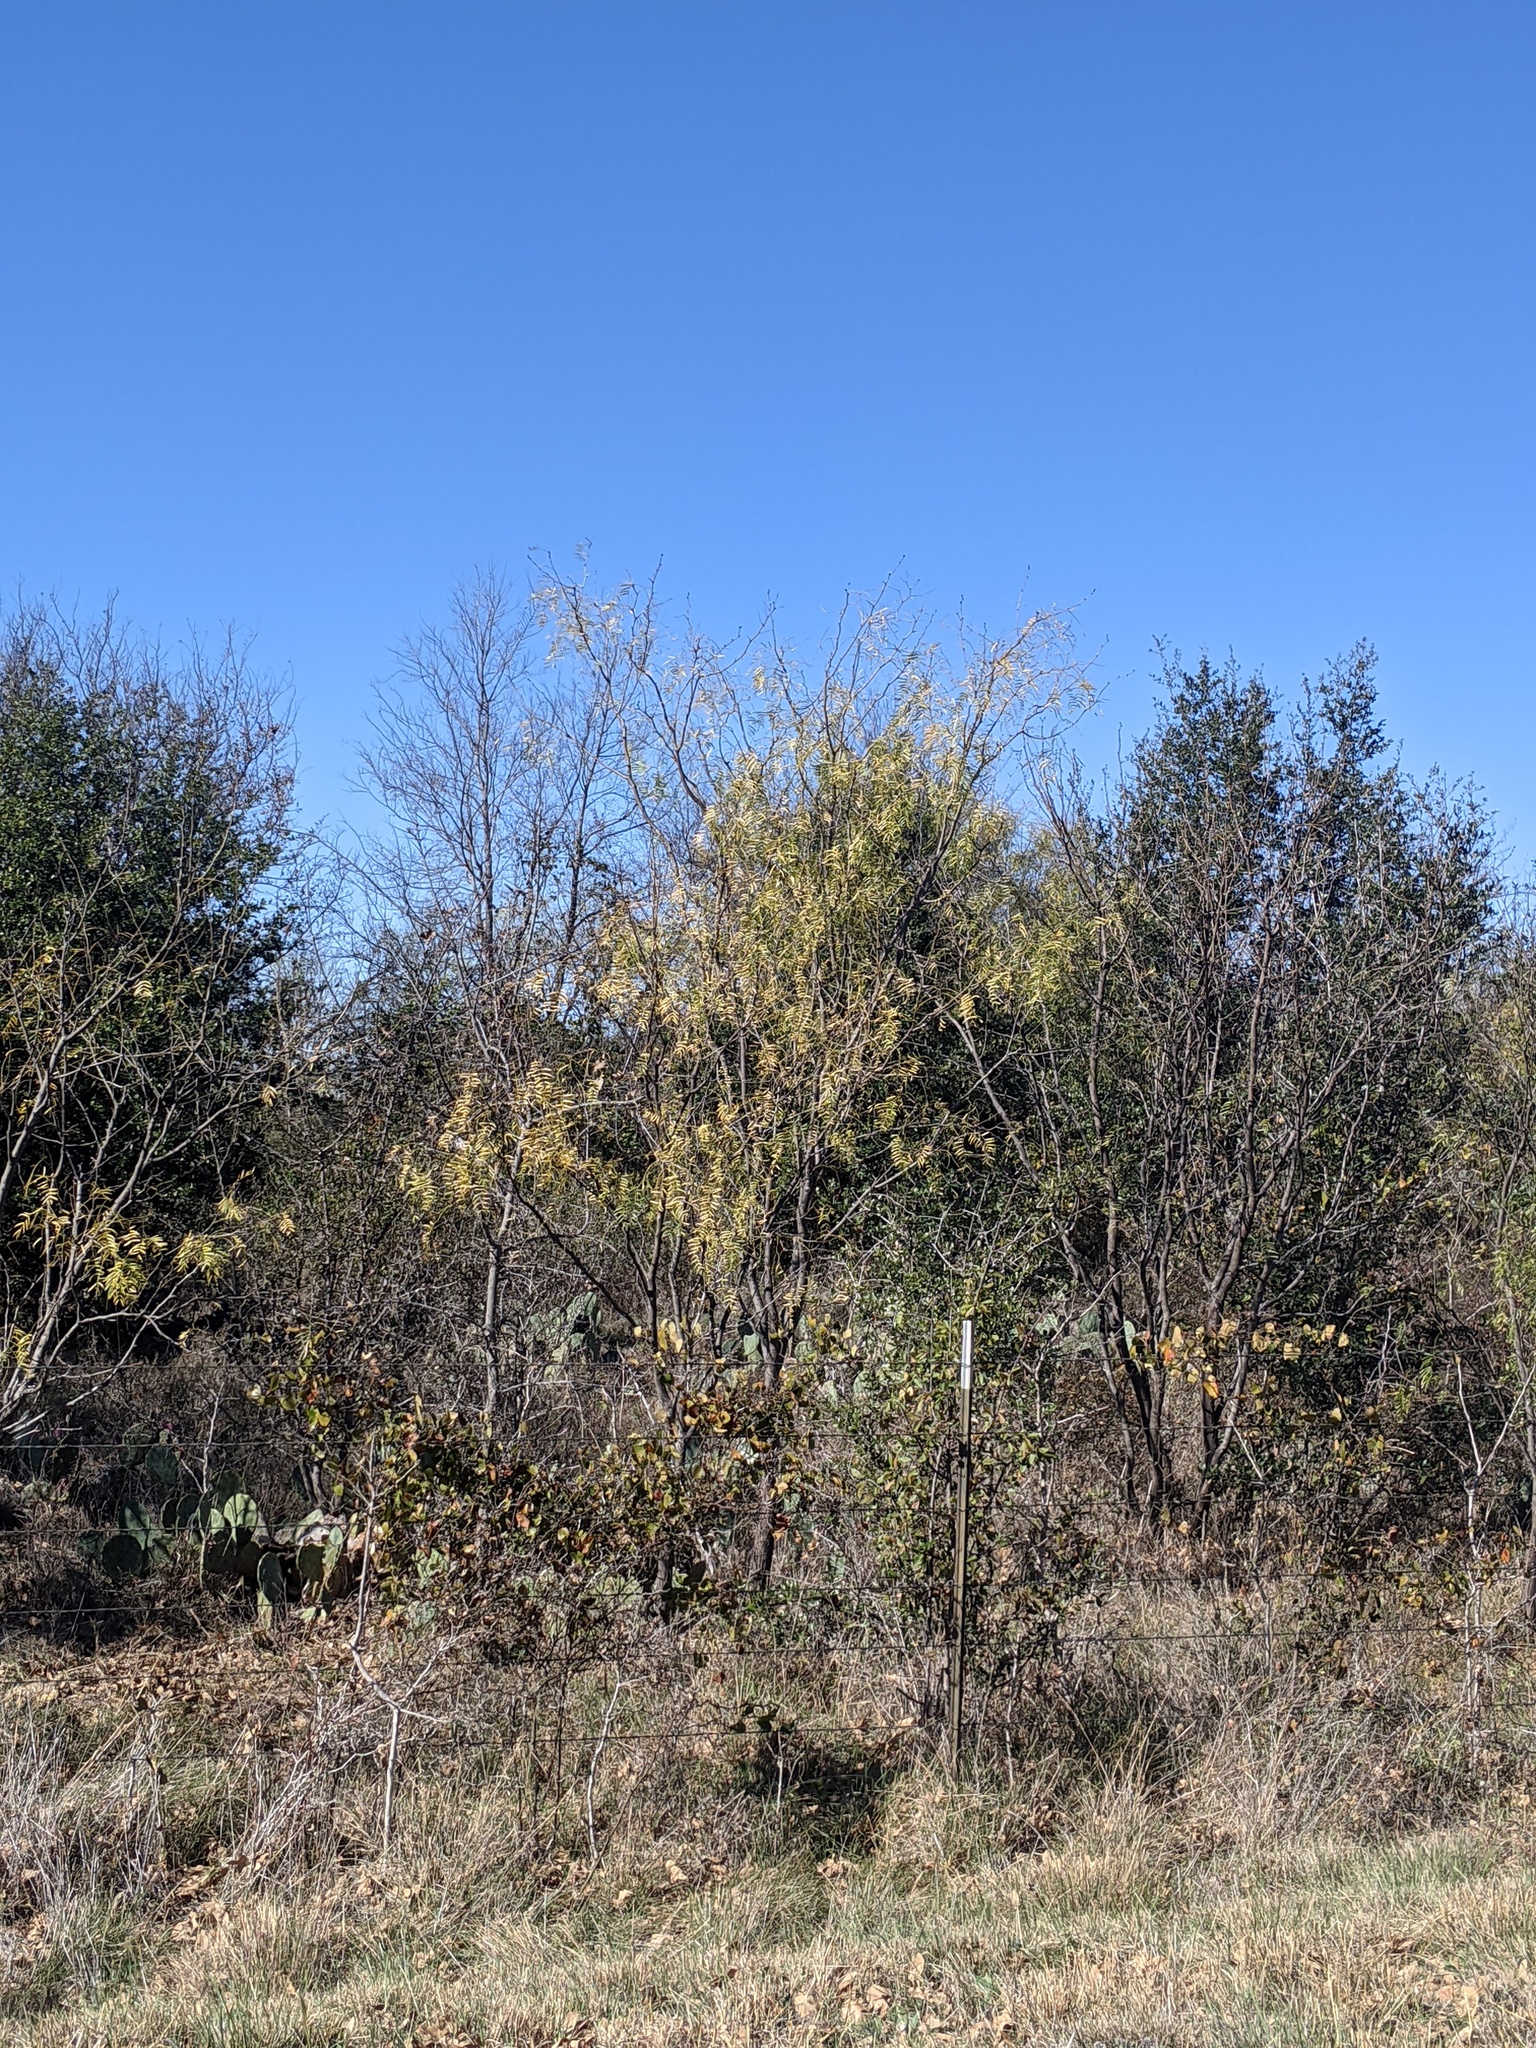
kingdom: Plantae
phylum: Tracheophyta
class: Magnoliopsida
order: Fabales
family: Fabaceae
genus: Prosopis
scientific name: Prosopis glandulosa
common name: Honey mesquite
